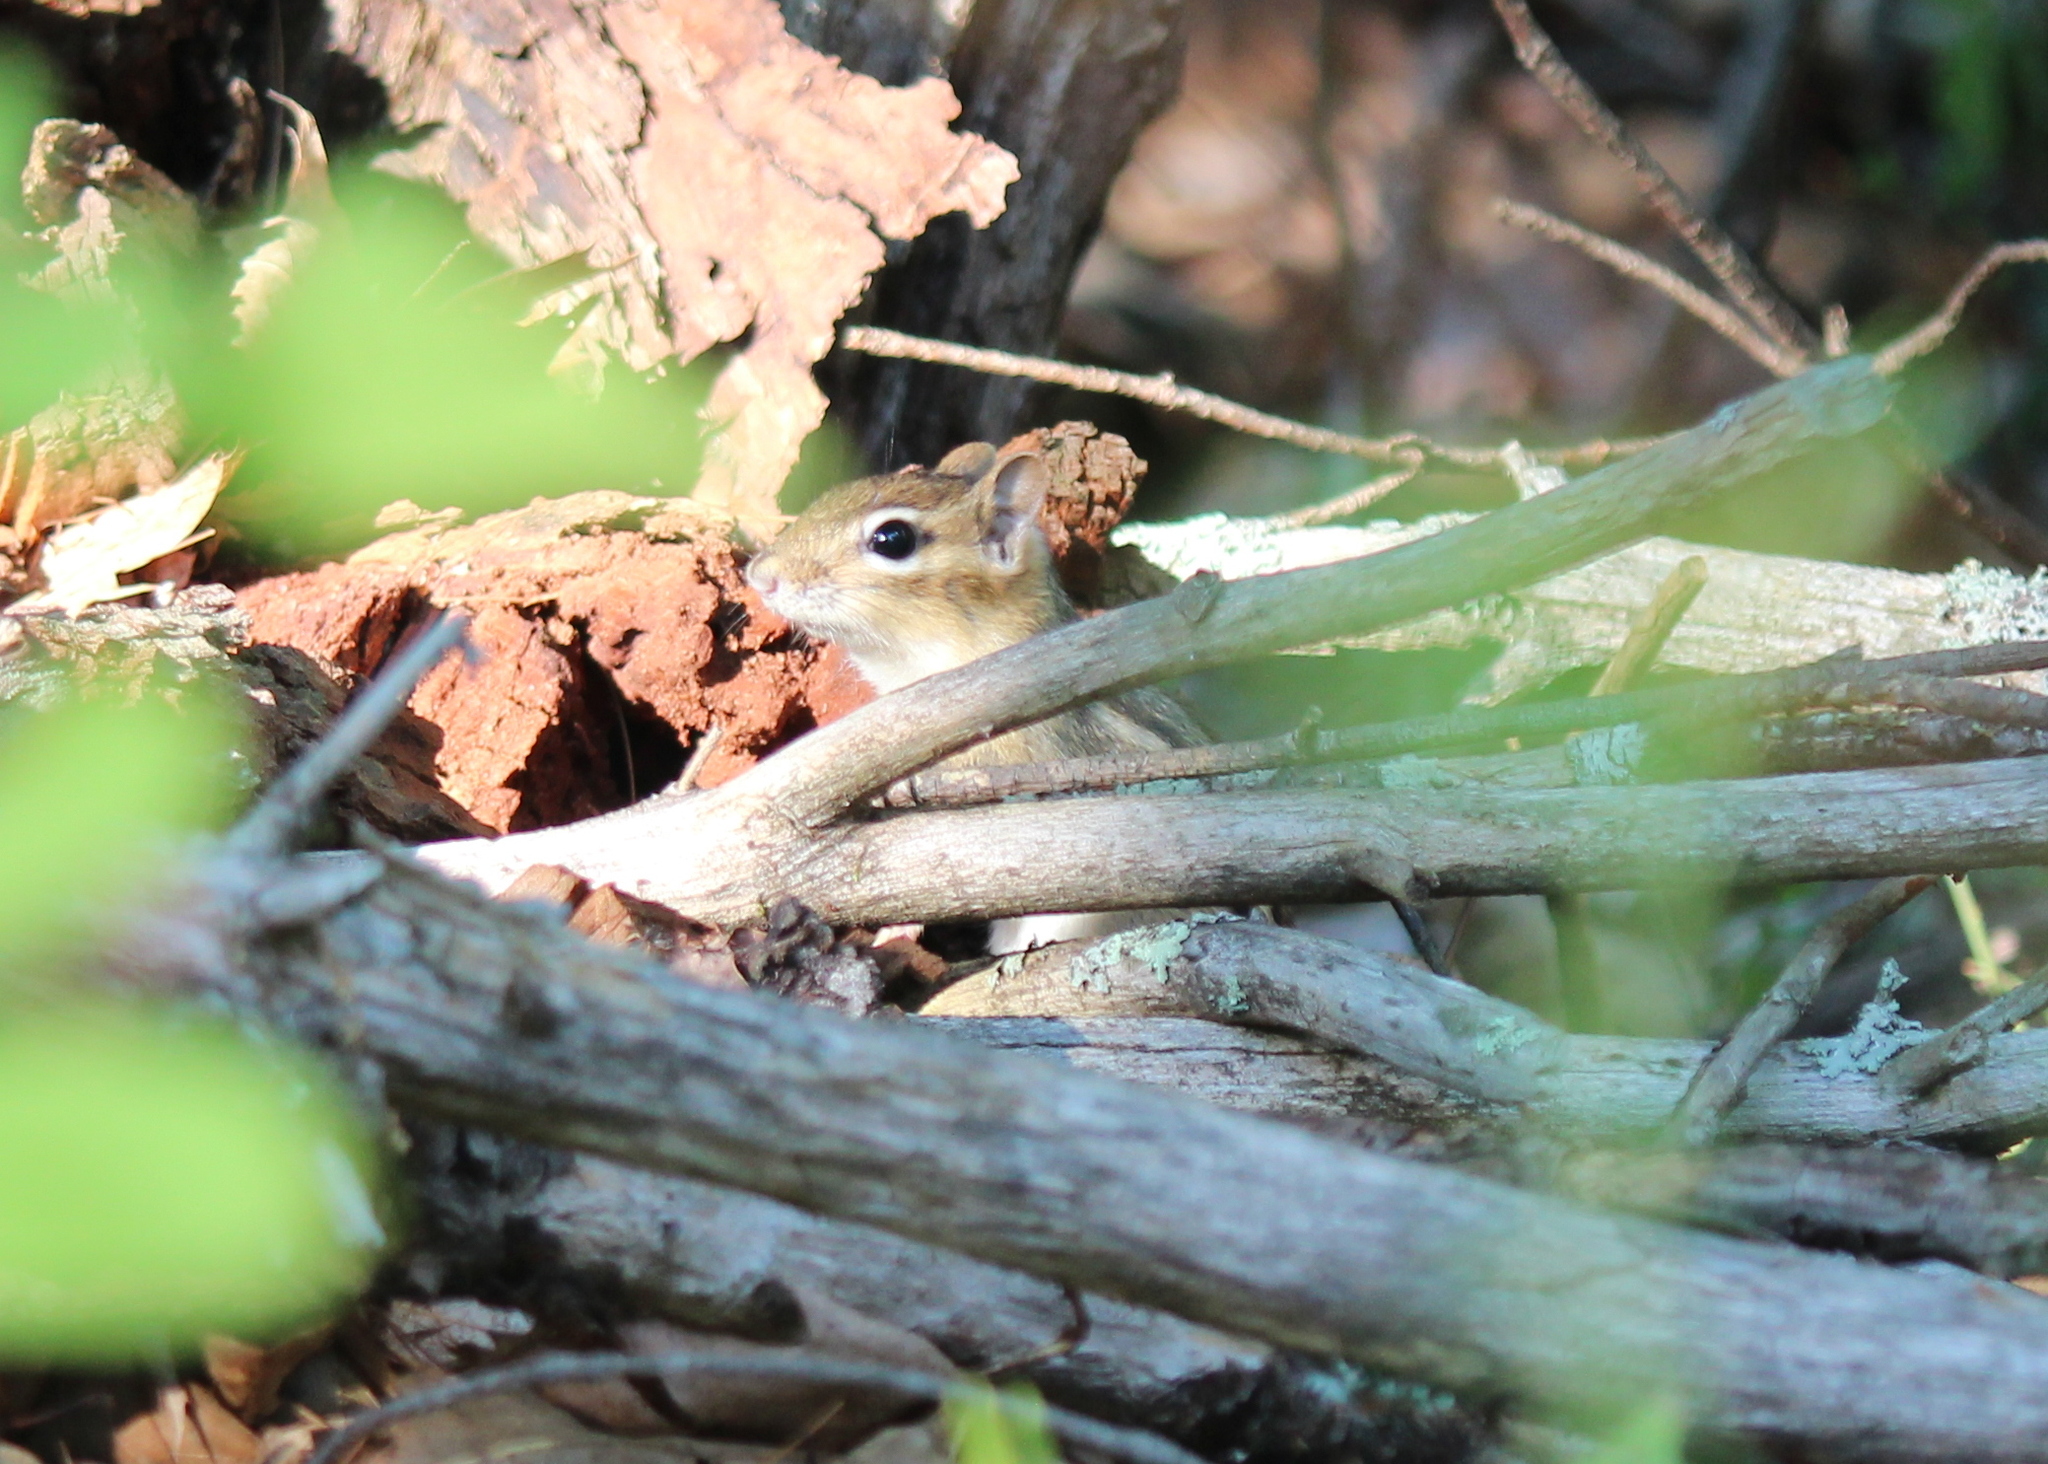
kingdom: Animalia
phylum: Chordata
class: Mammalia
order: Rodentia
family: Sciuridae
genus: Tamias
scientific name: Tamias striatus
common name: Eastern chipmunk
